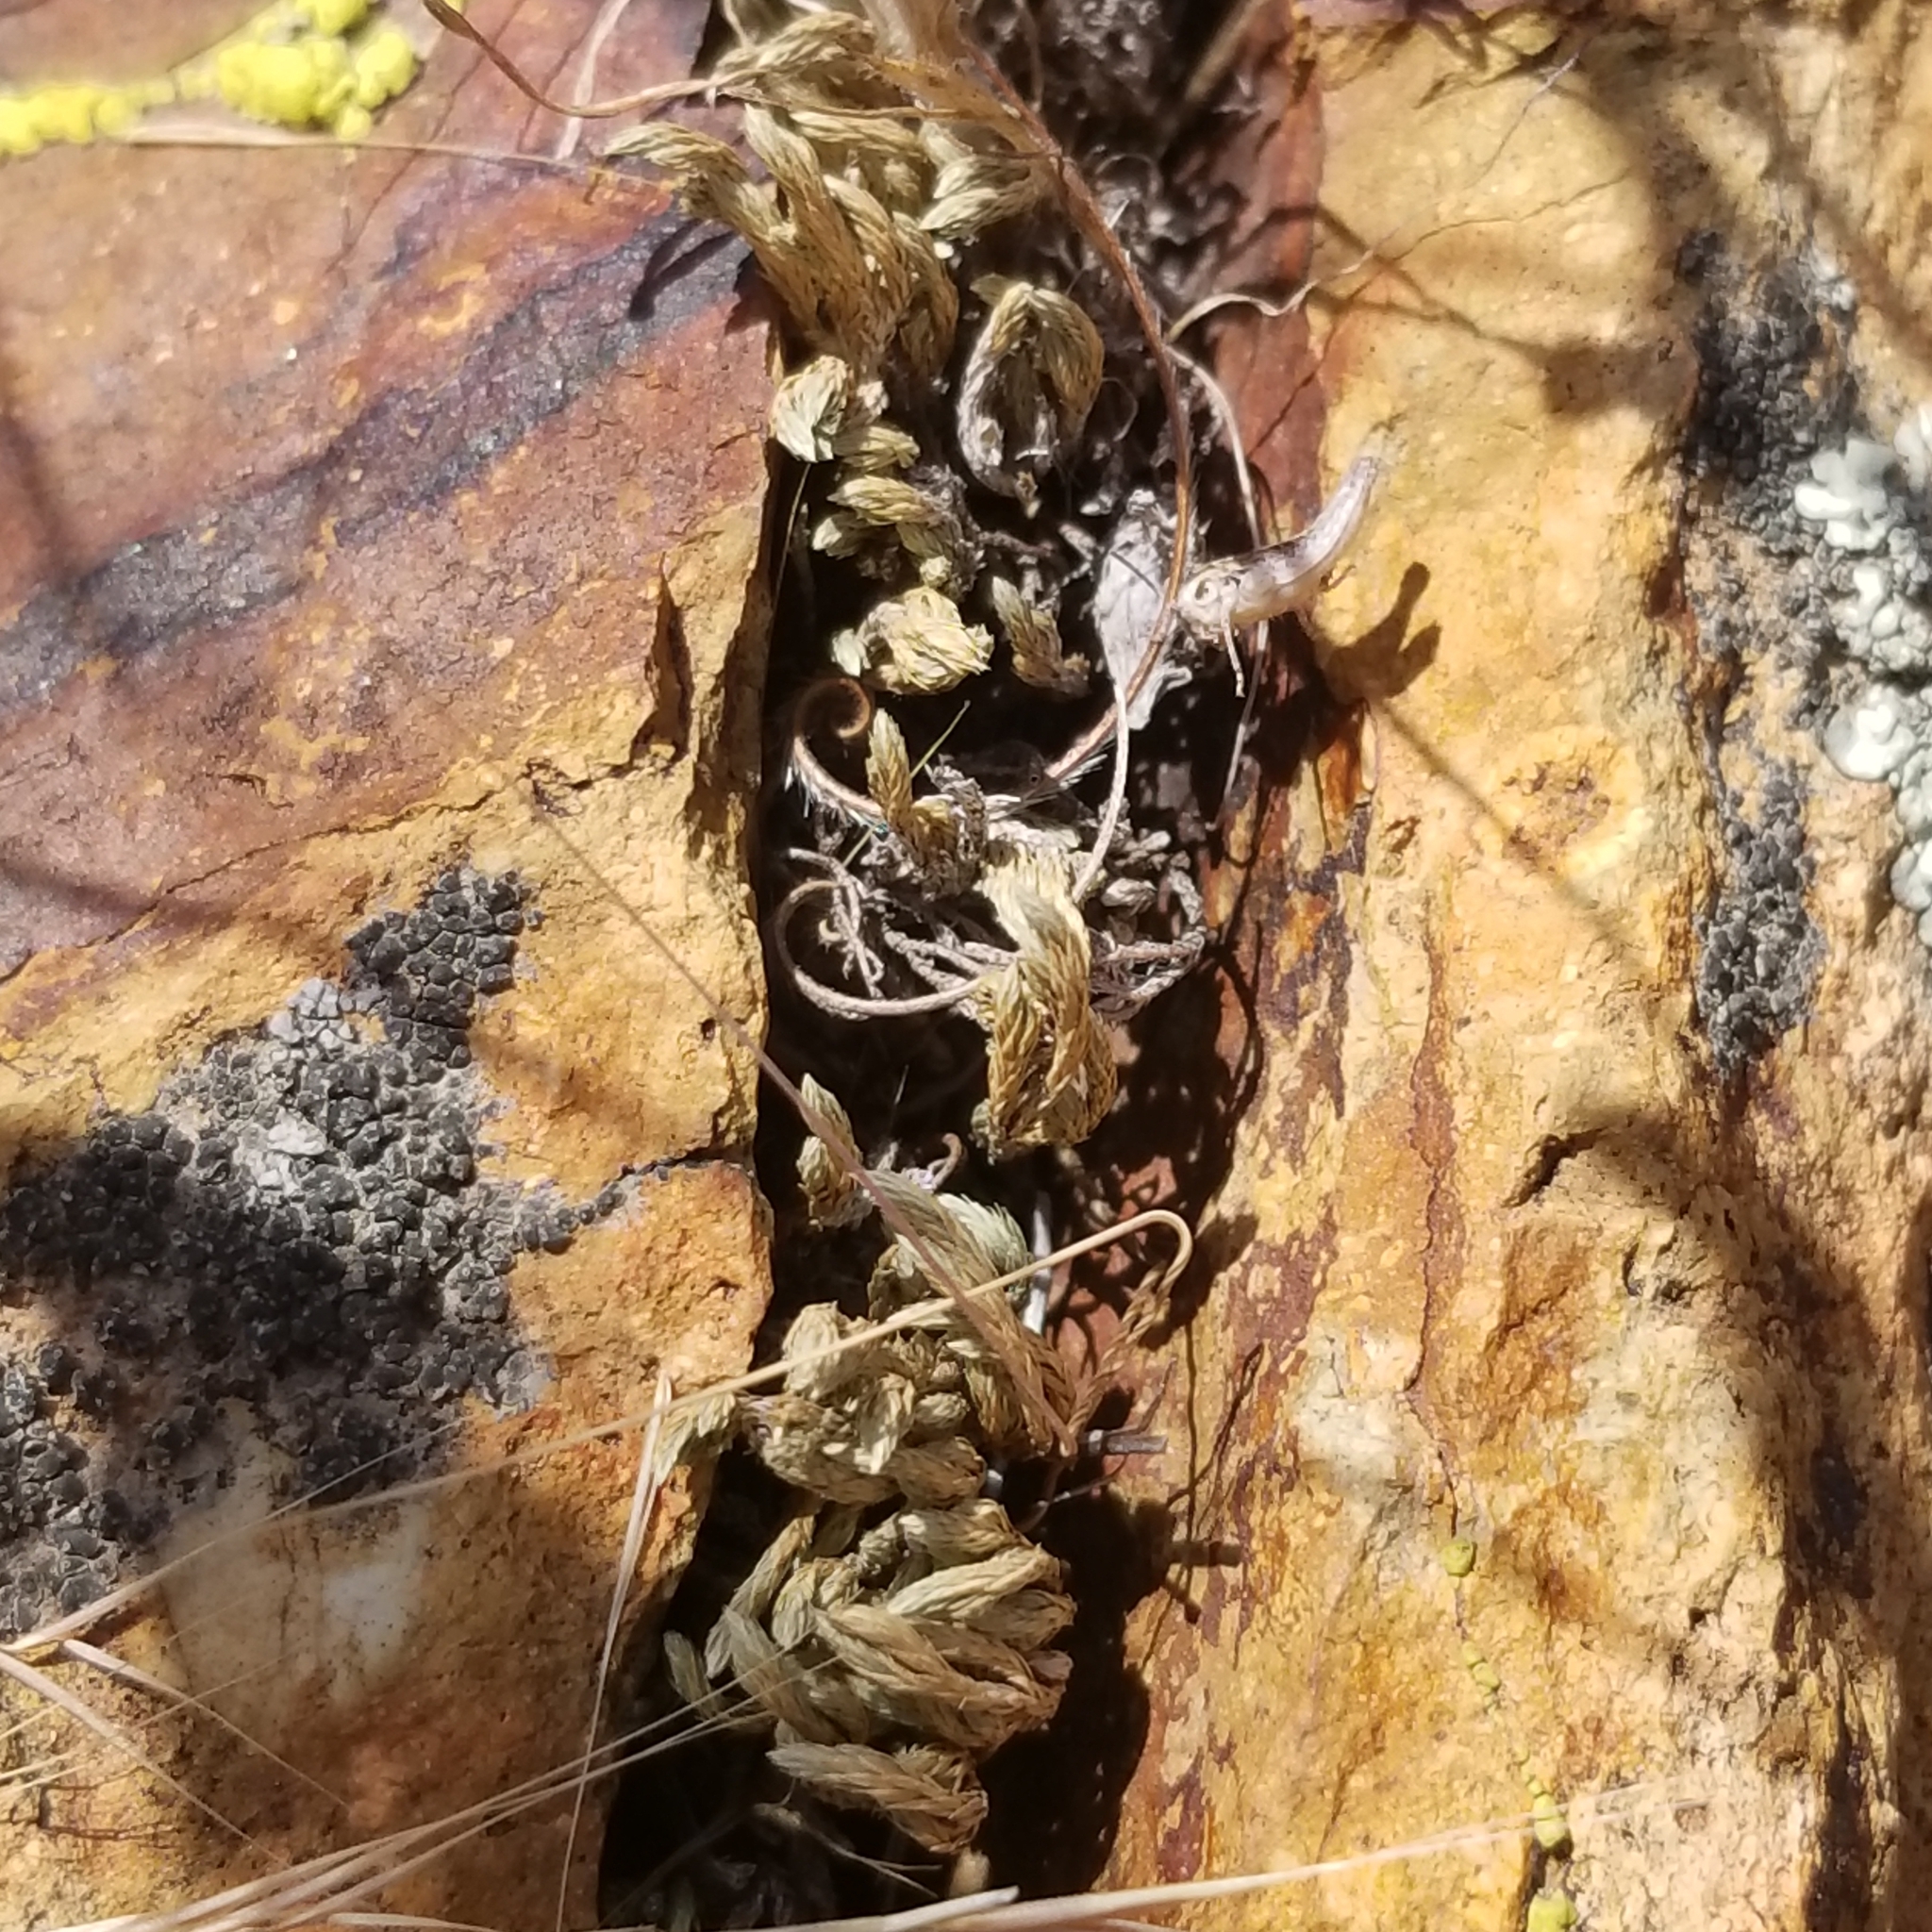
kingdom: Plantae
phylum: Tracheophyta
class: Lycopodiopsida
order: Selaginellales
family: Selaginellaceae
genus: Selaginella
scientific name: Selaginella bigelovii
